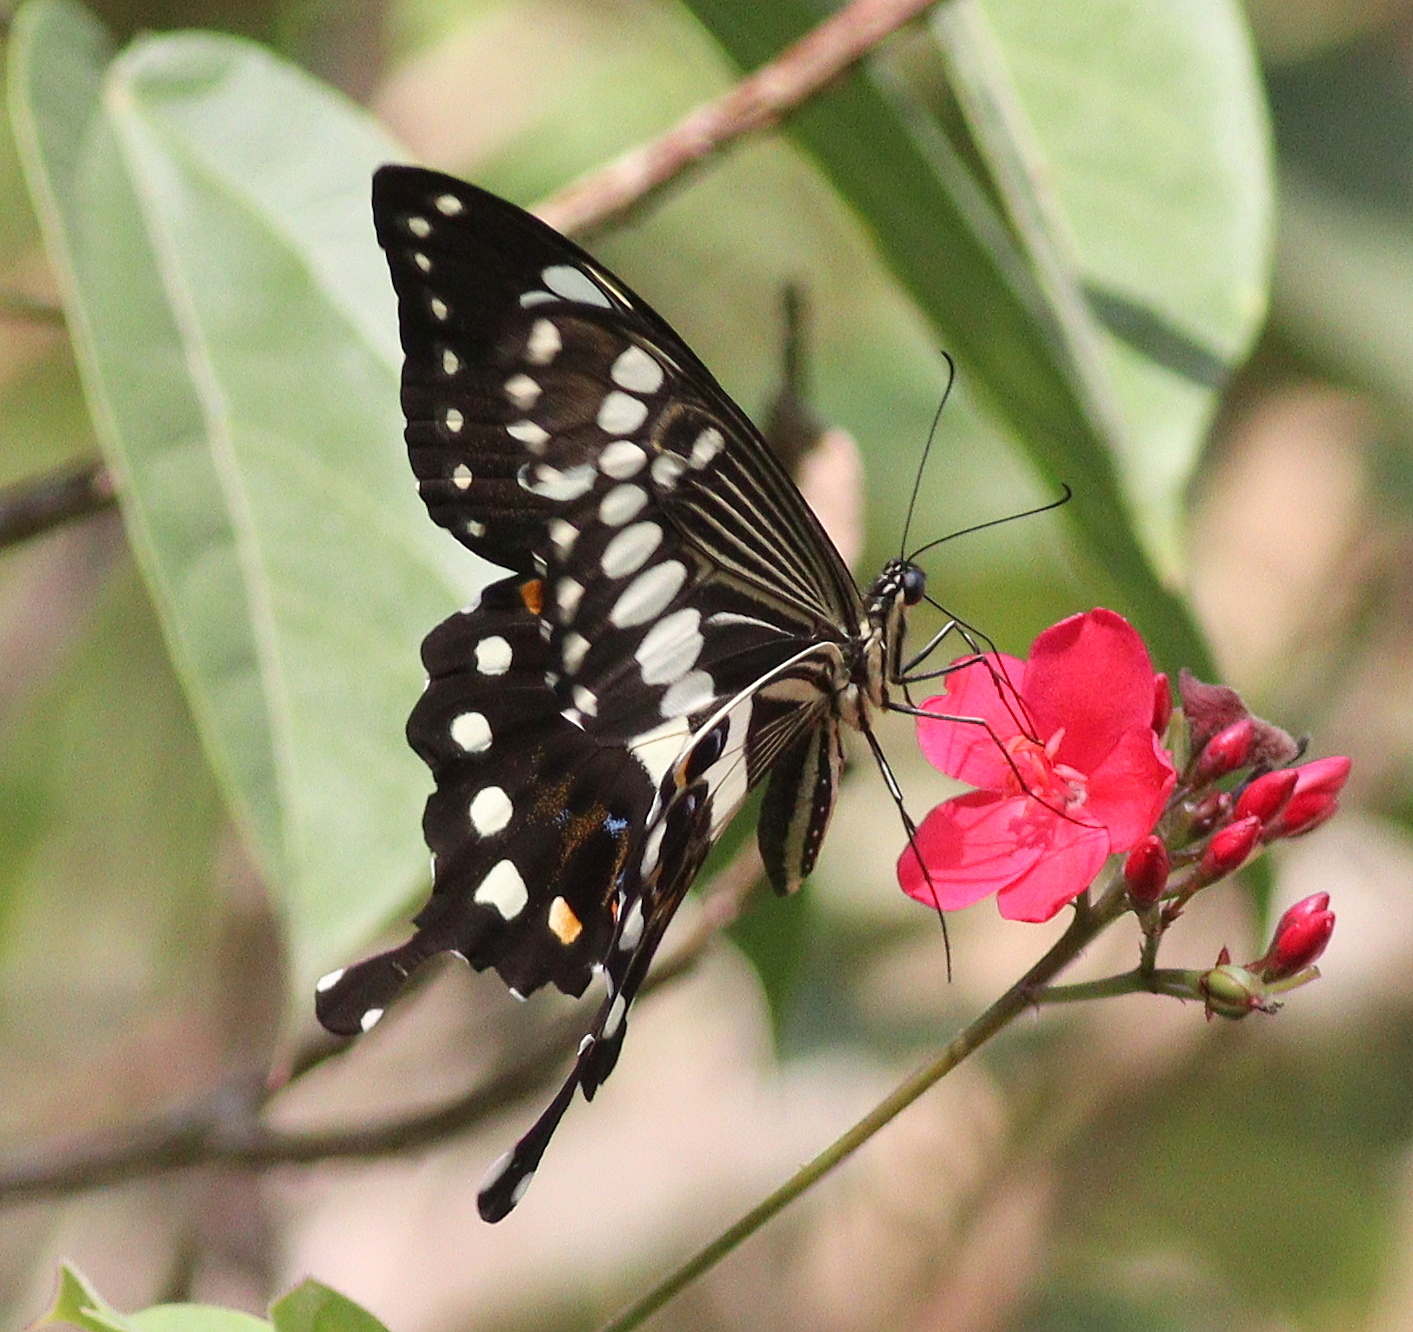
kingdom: Animalia
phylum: Arthropoda
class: Insecta
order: Lepidoptera
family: Papilionidae
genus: Papilio
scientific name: Papilio menestheus
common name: Western emperor swallowtail
